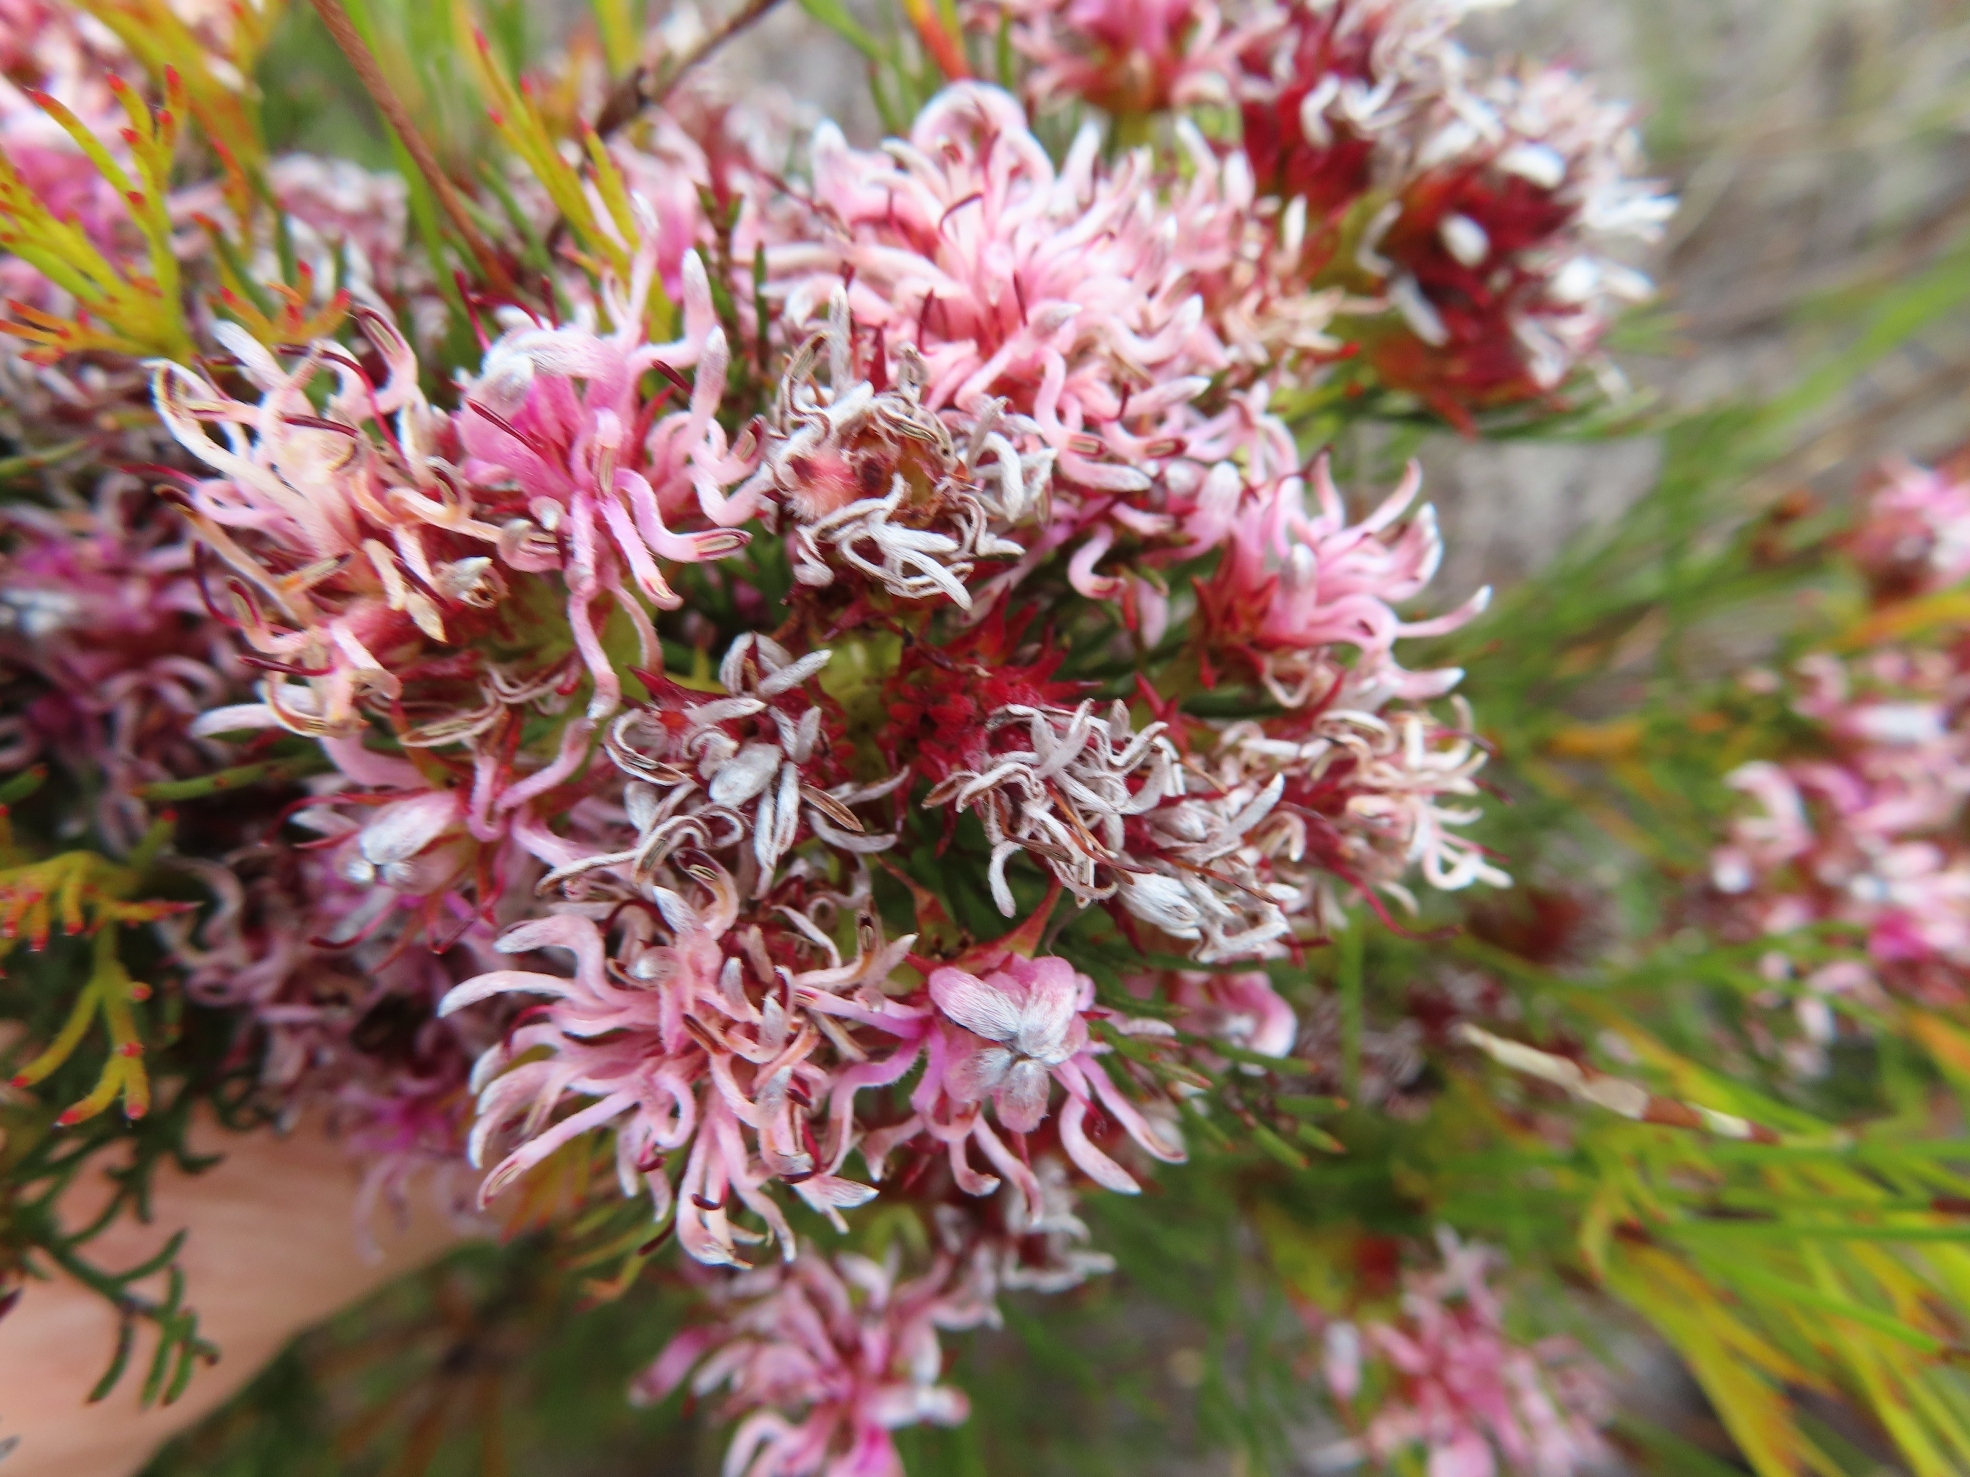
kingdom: Plantae
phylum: Tracheophyta
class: Magnoliopsida
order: Proteales
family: Proteaceae
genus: Serruria
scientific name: Serruria bolusii
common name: Agulhas spiderhead
